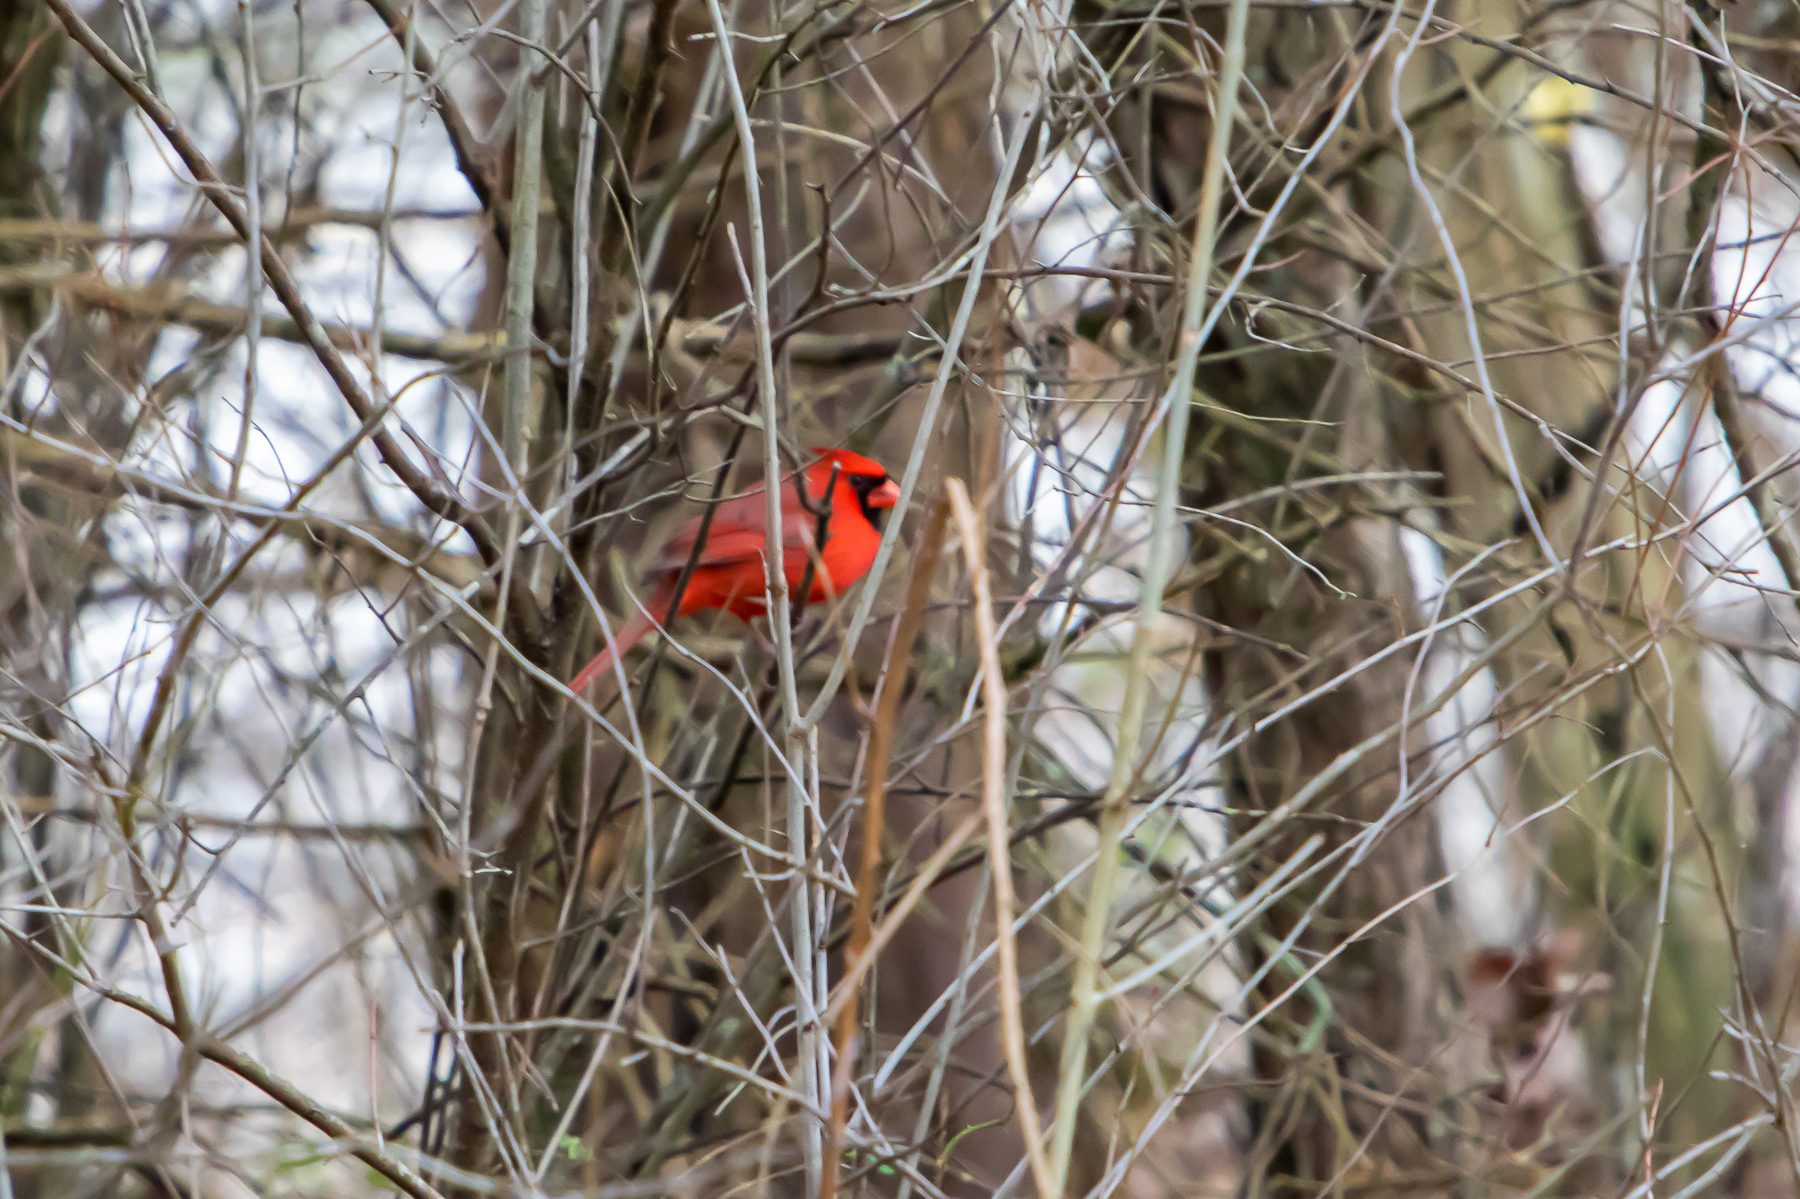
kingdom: Animalia
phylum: Chordata
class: Aves
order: Passeriformes
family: Cardinalidae
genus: Cardinalis
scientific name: Cardinalis cardinalis
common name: Northern cardinal
